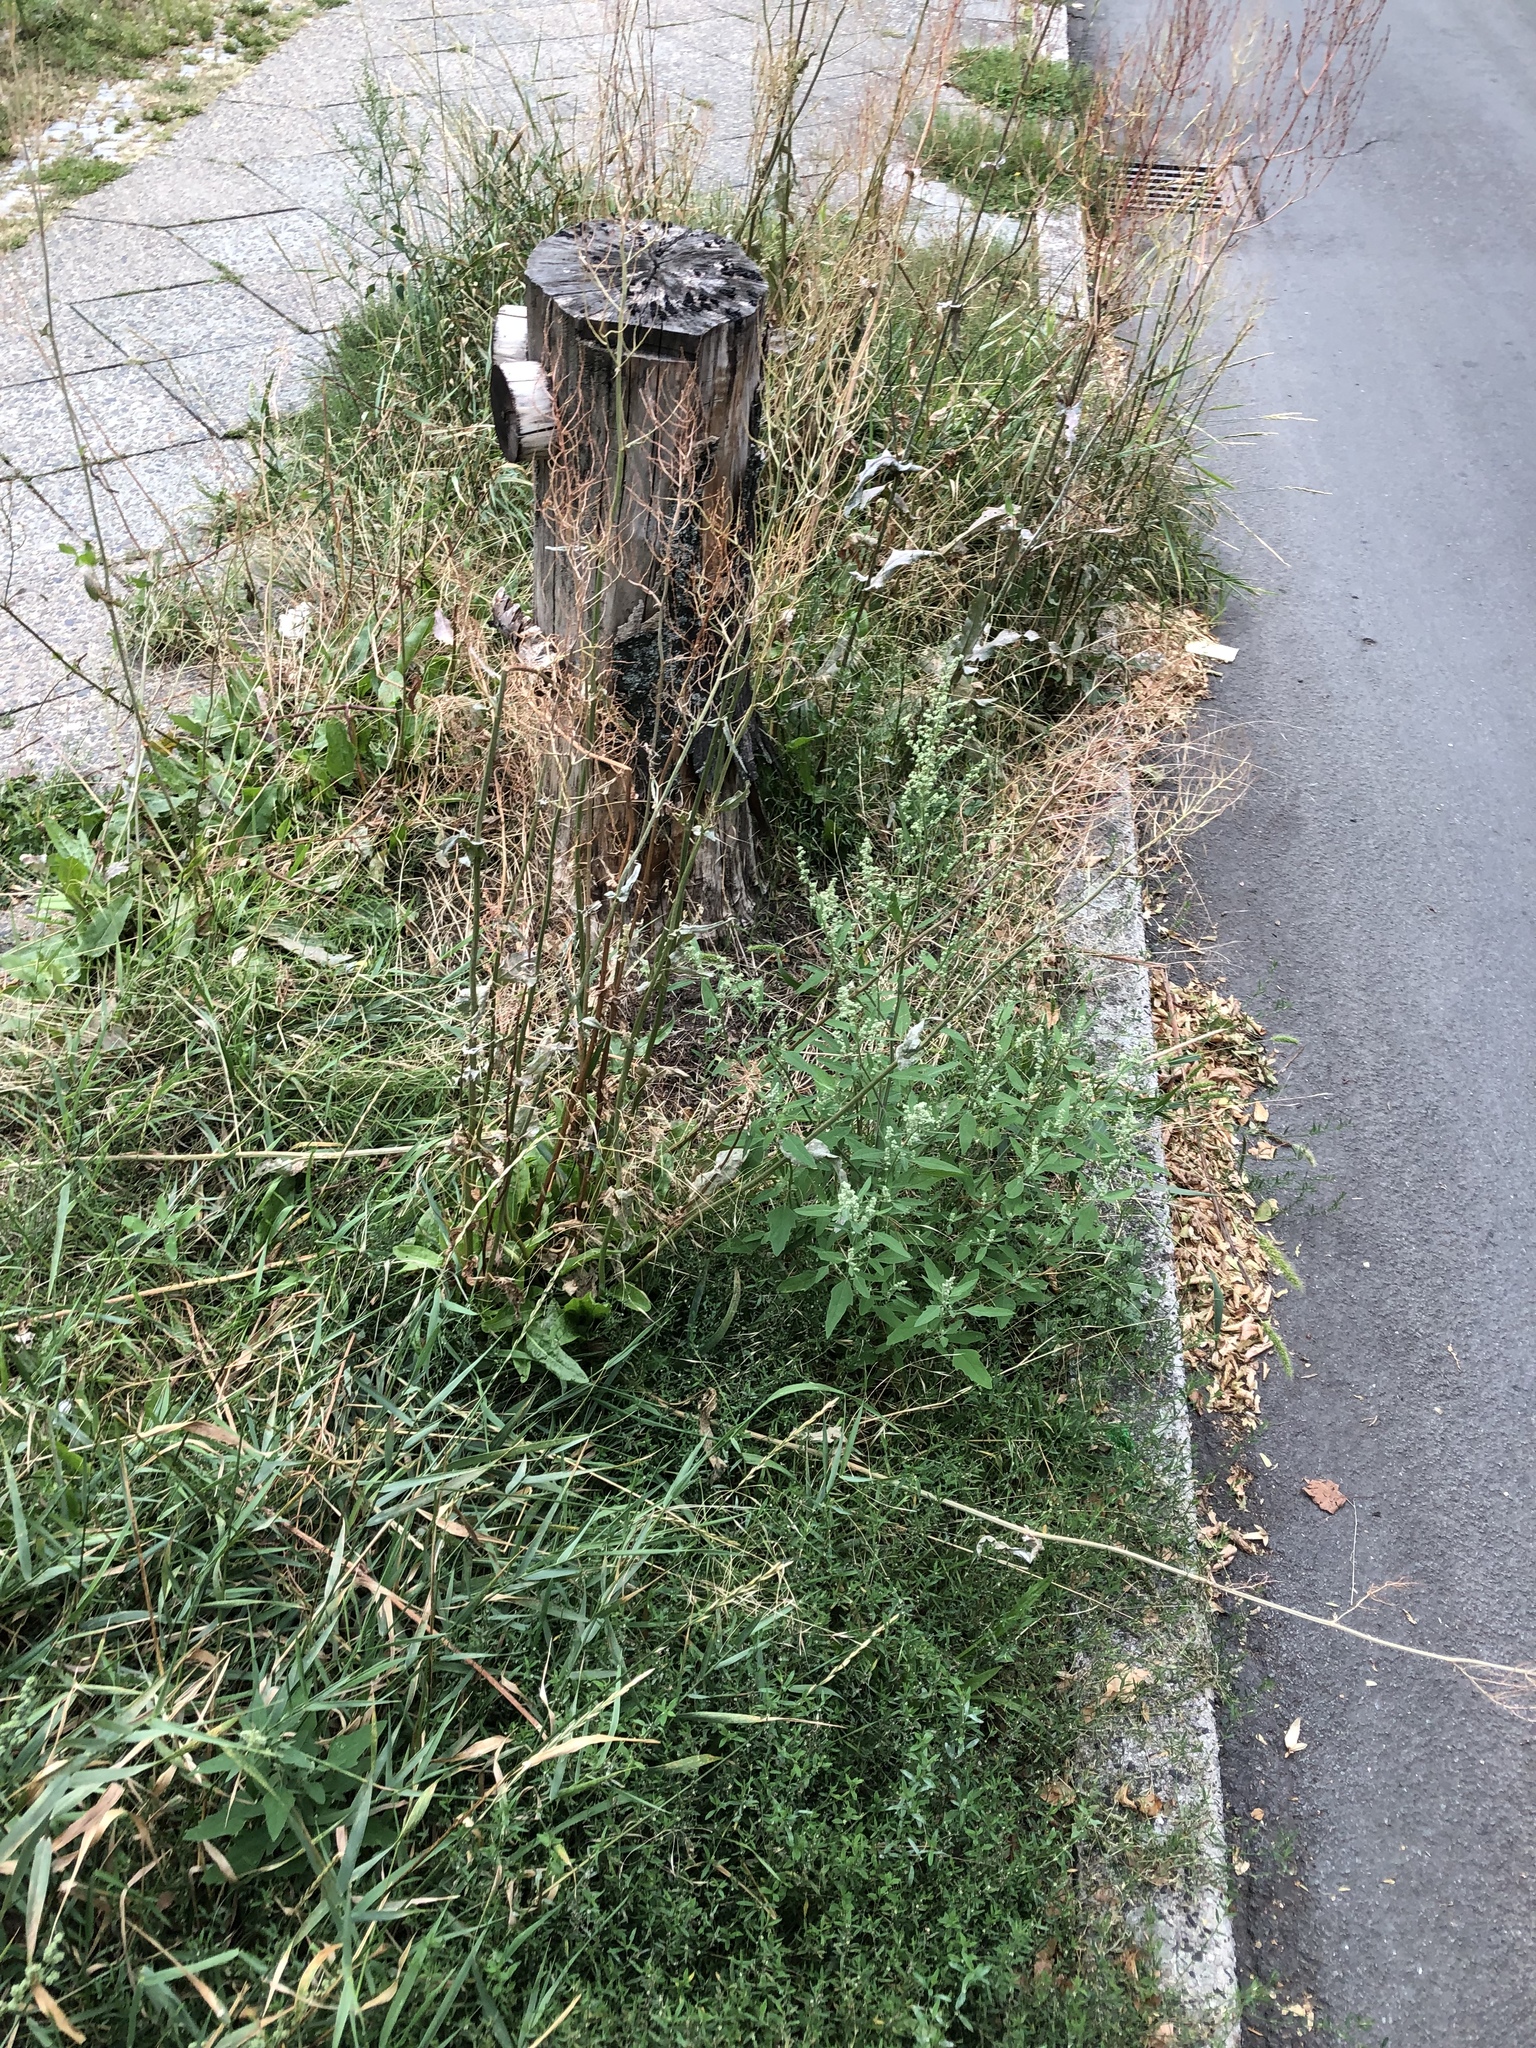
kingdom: Animalia
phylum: Arthropoda
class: Insecta
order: Coleoptera
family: Cerambycidae
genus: Xylotrechus
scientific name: Xylotrechus arvicola
